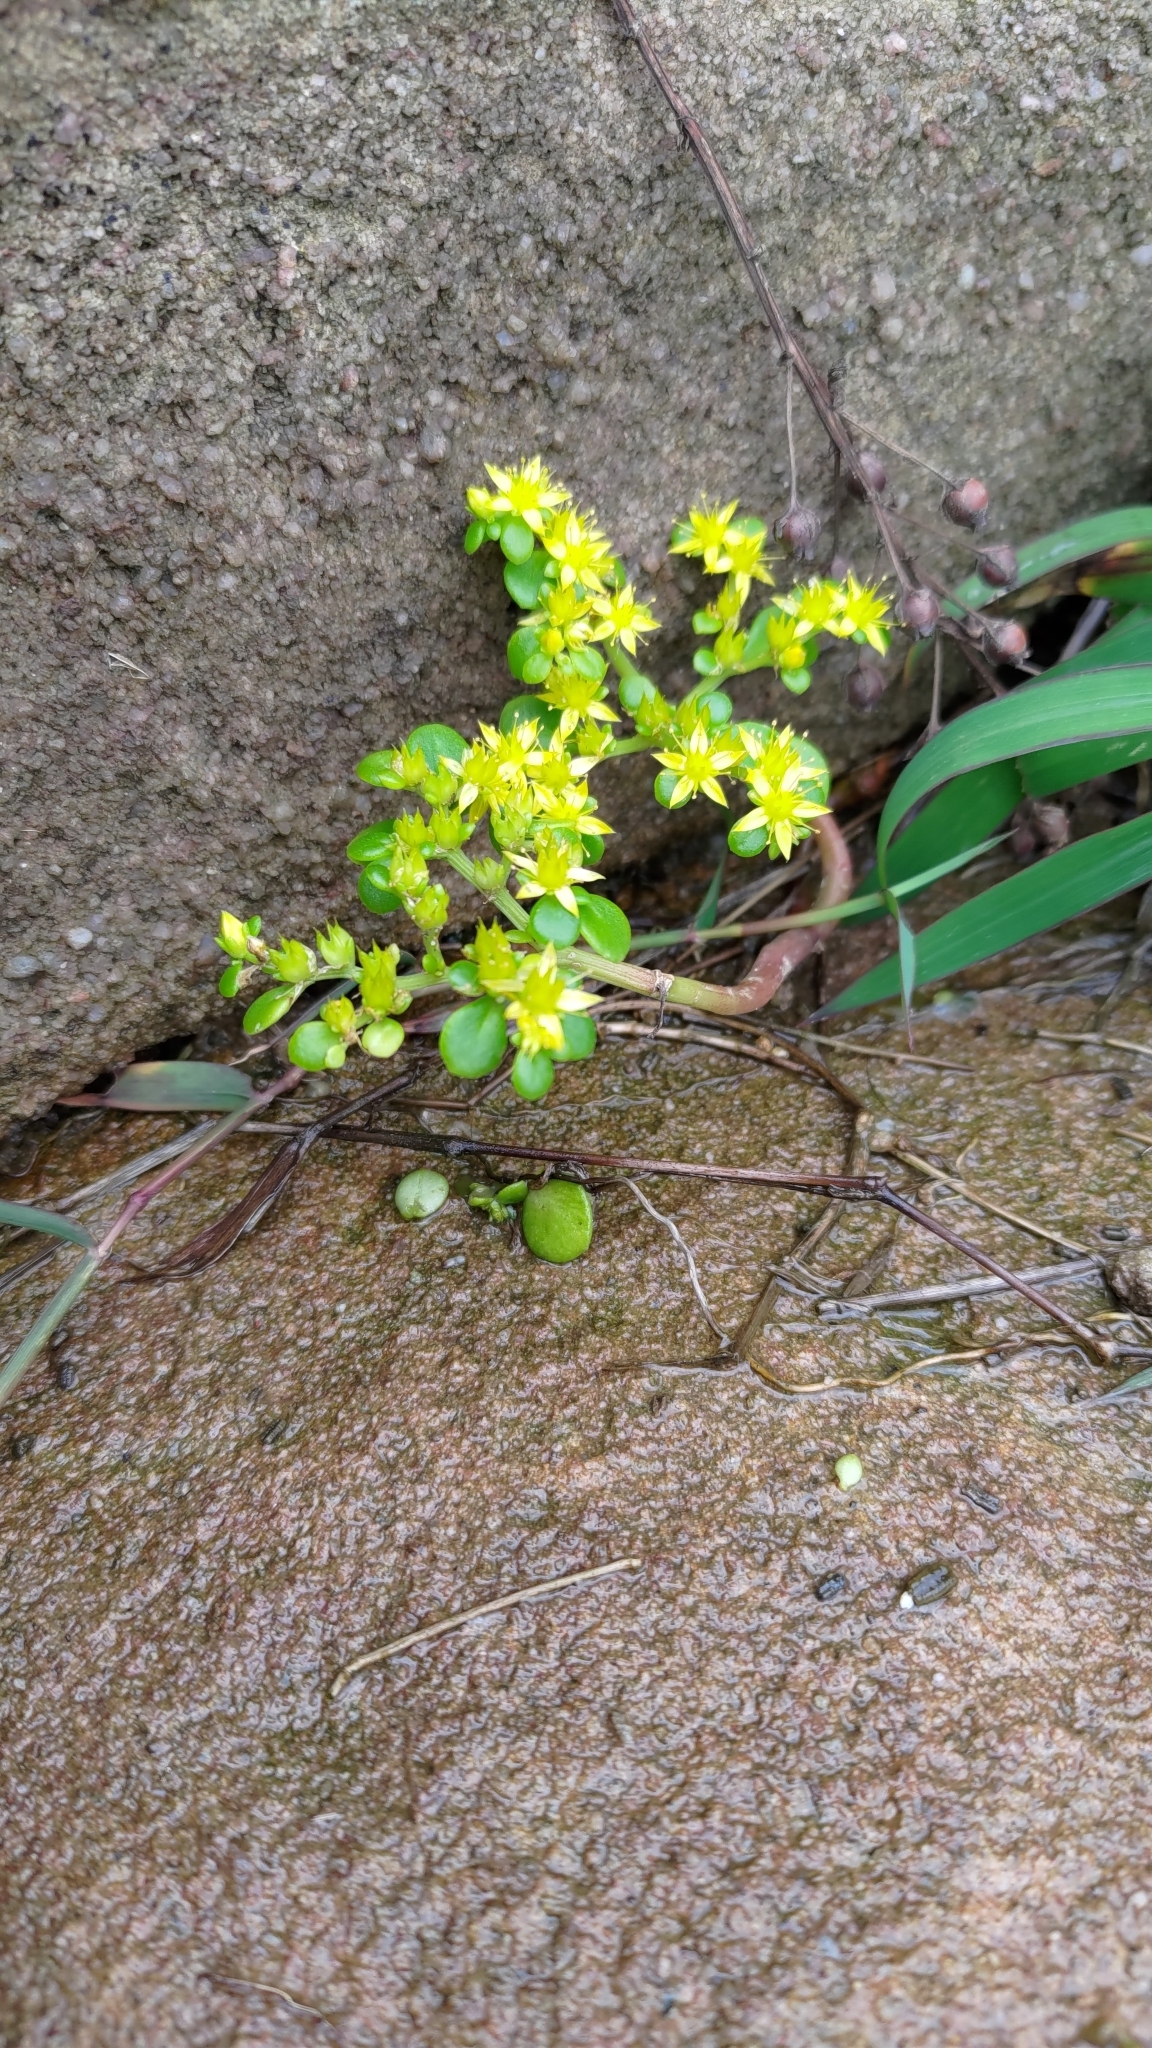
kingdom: Plantae
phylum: Tracheophyta
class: Magnoliopsida
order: Saxifragales
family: Crassulaceae
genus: Sedum
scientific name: Sedum formosanum
